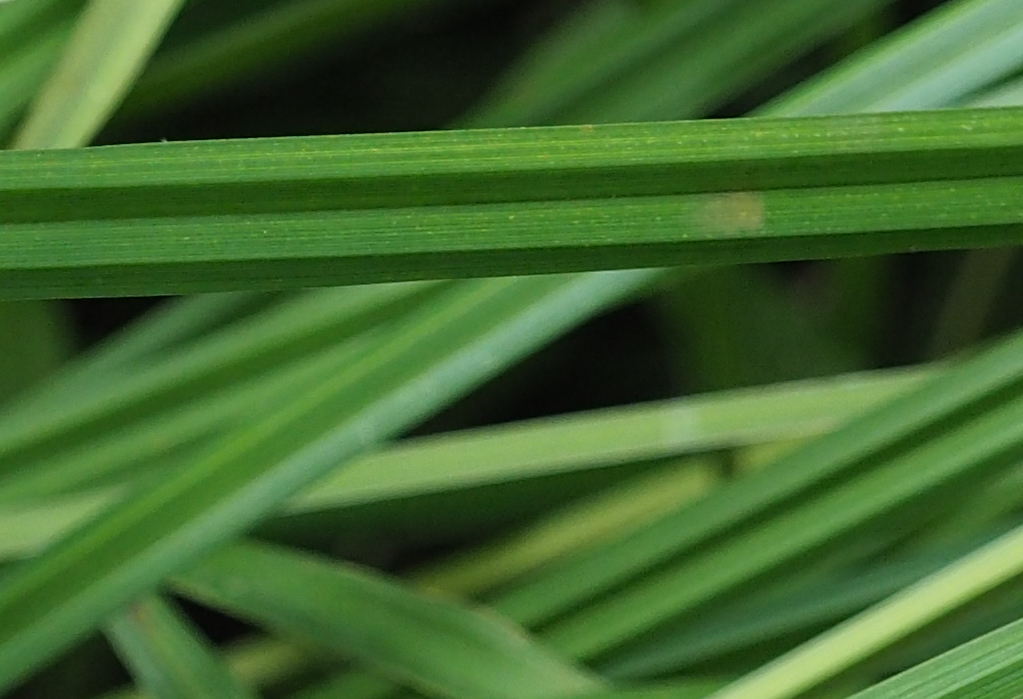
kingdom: Plantae
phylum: Tracheophyta
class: Liliopsida
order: Poales
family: Cyperaceae
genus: Carex
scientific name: Carex
